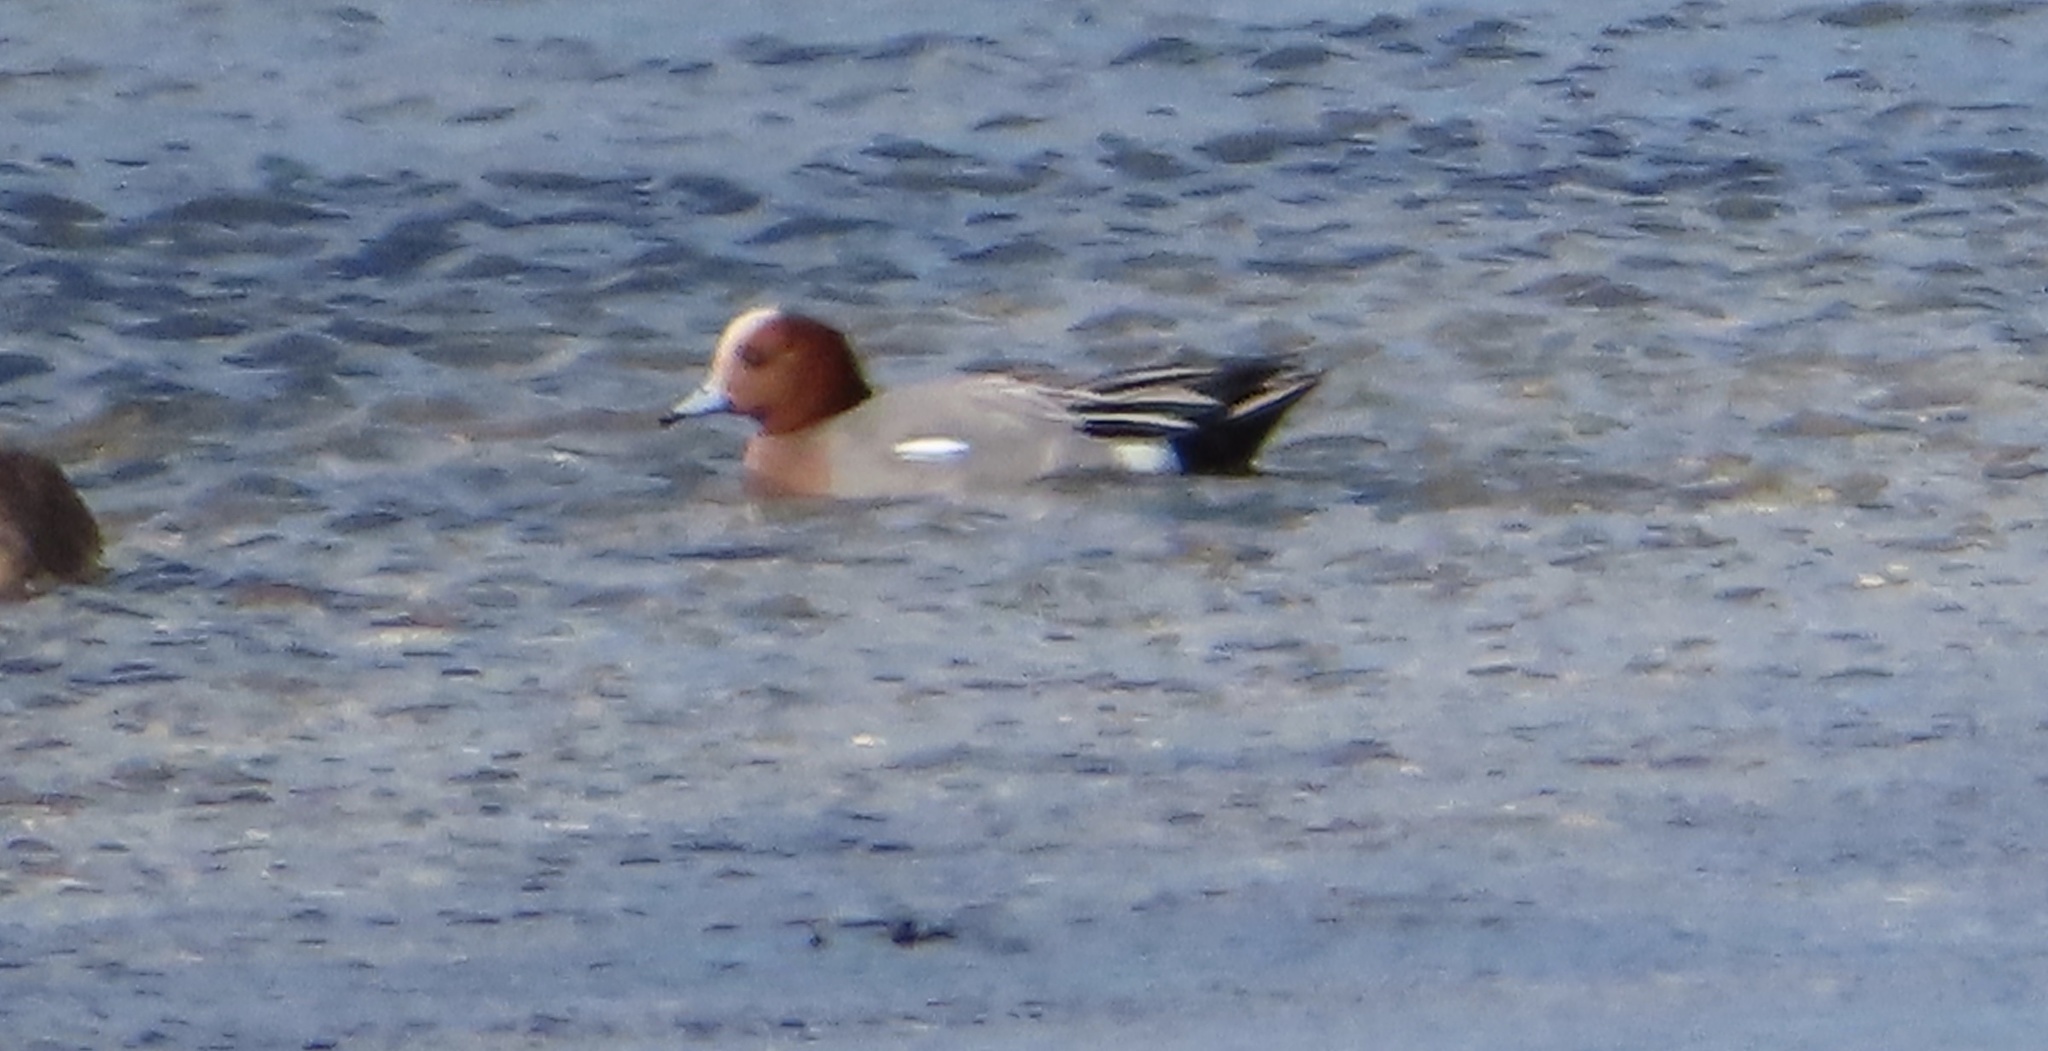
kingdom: Animalia
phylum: Chordata
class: Aves
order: Anseriformes
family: Anatidae
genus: Mareca
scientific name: Mareca penelope
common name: Eurasian wigeon
